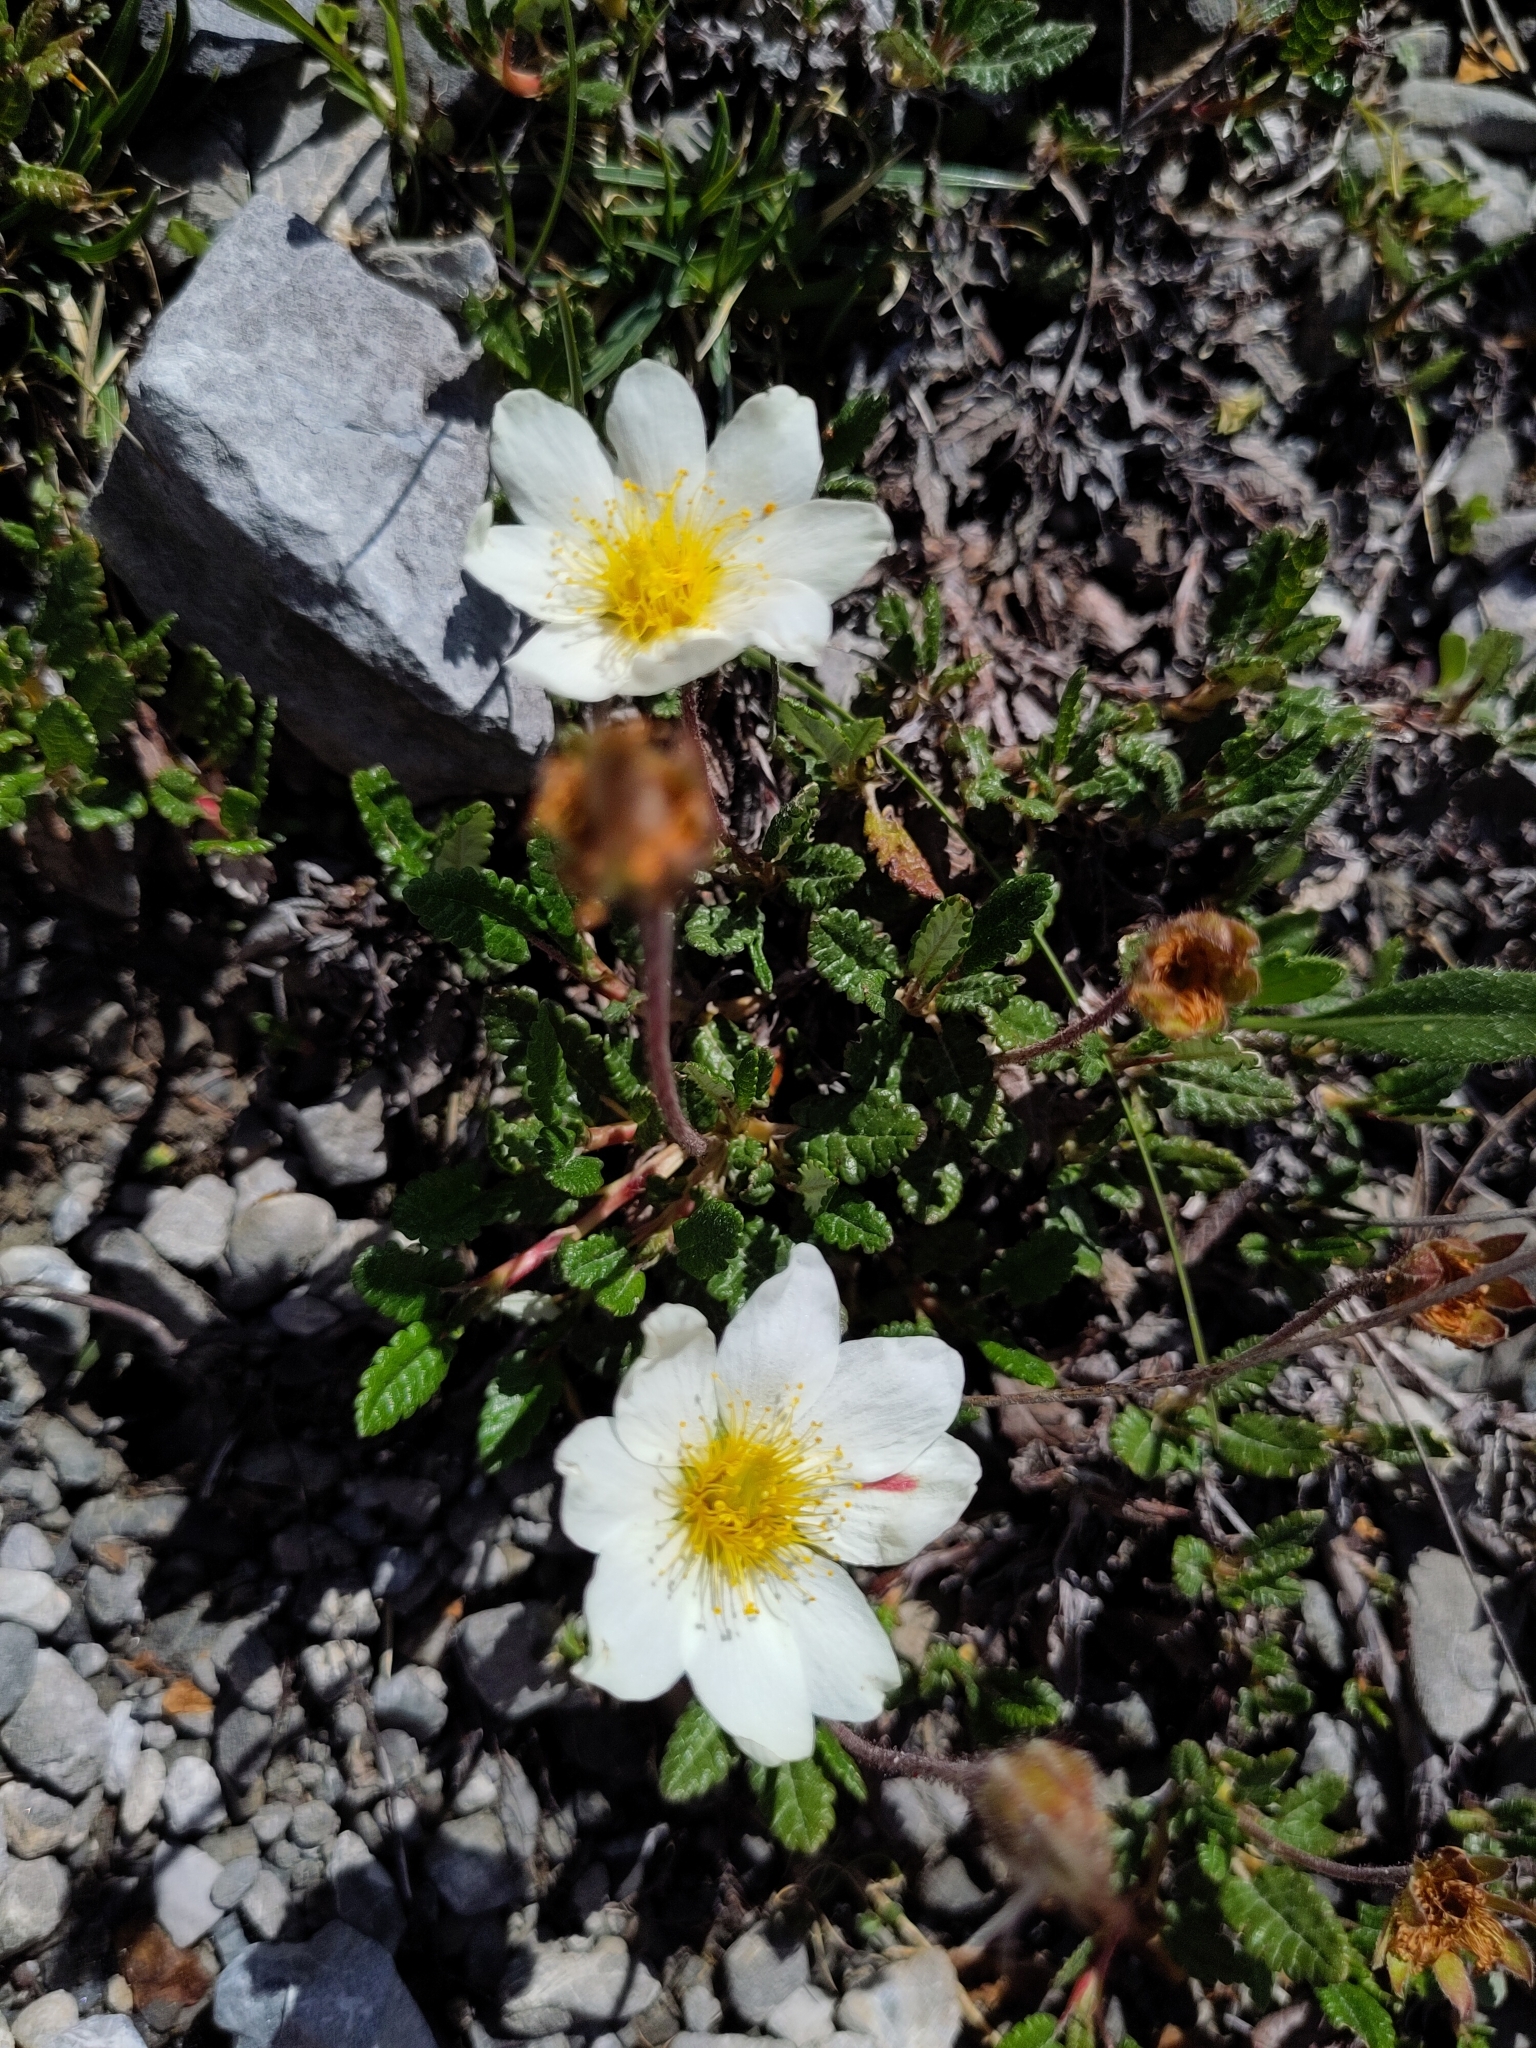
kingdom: Plantae
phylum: Tracheophyta
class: Magnoliopsida
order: Rosales
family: Rosaceae
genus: Dryas
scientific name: Dryas octopetala
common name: Eight-petal mountain-avens
